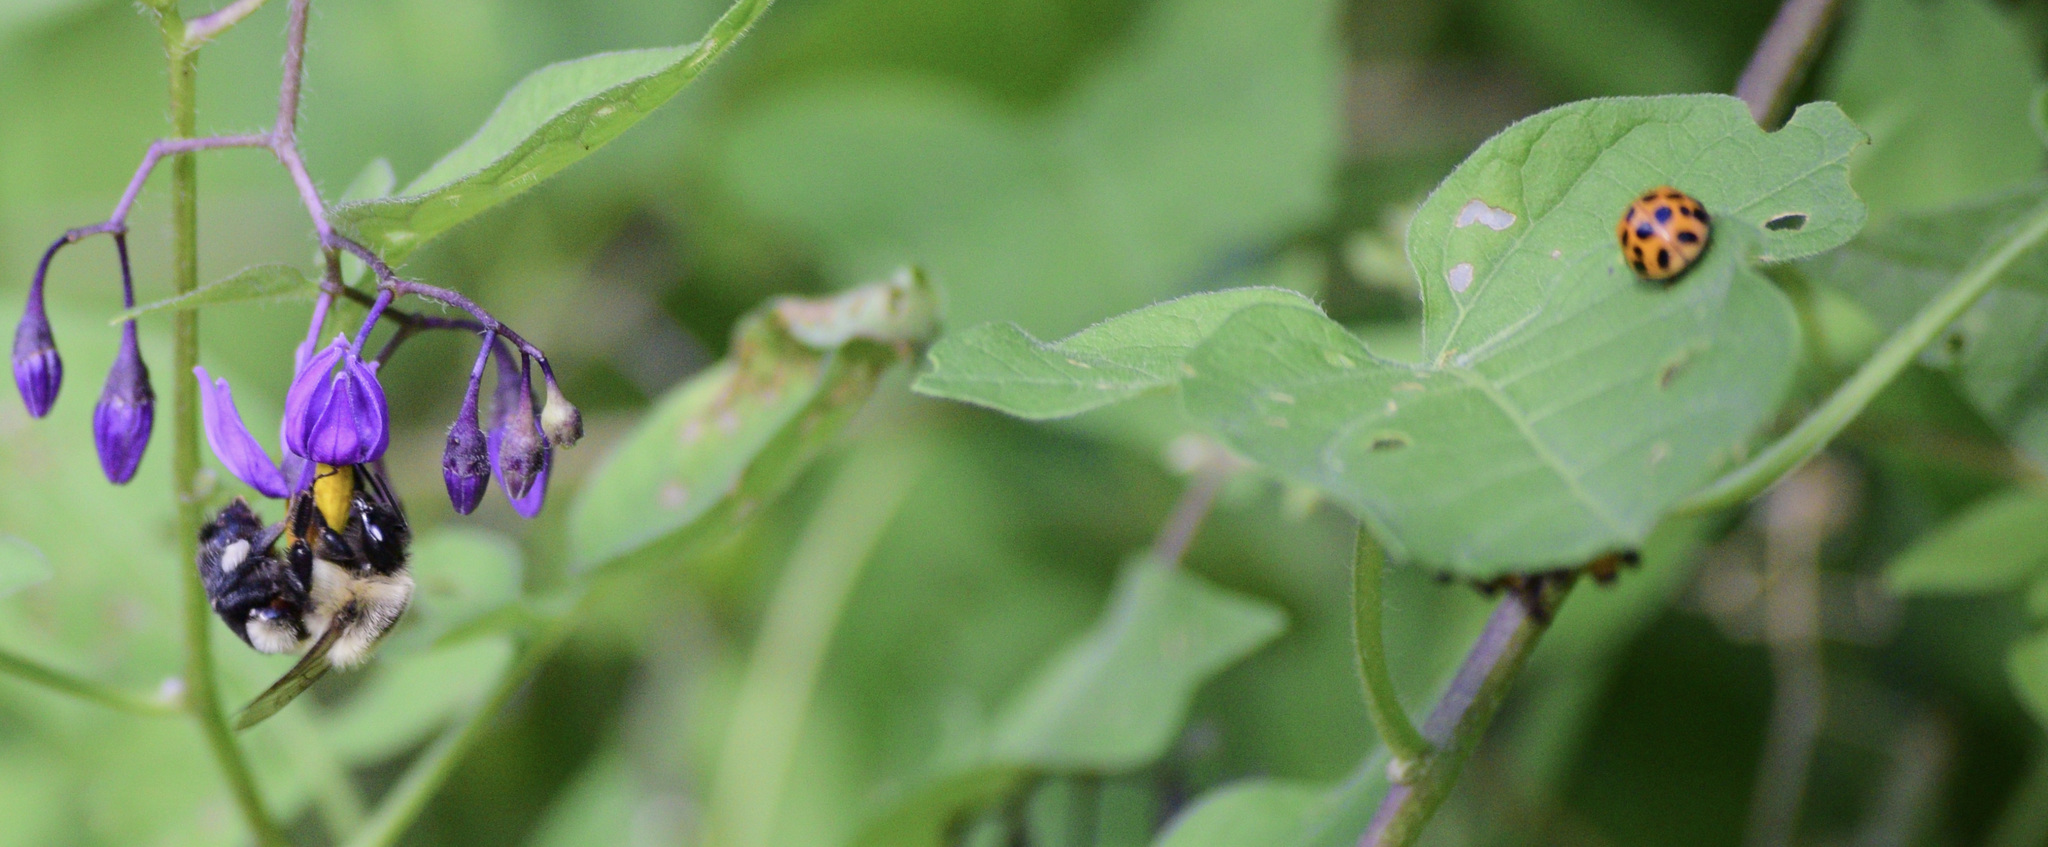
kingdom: Animalia
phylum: Arthropoda
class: Insecta
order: Hymenoptera
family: Apidae
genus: Bombus
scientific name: Bombus impatiens
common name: Common eastern bumble bee
